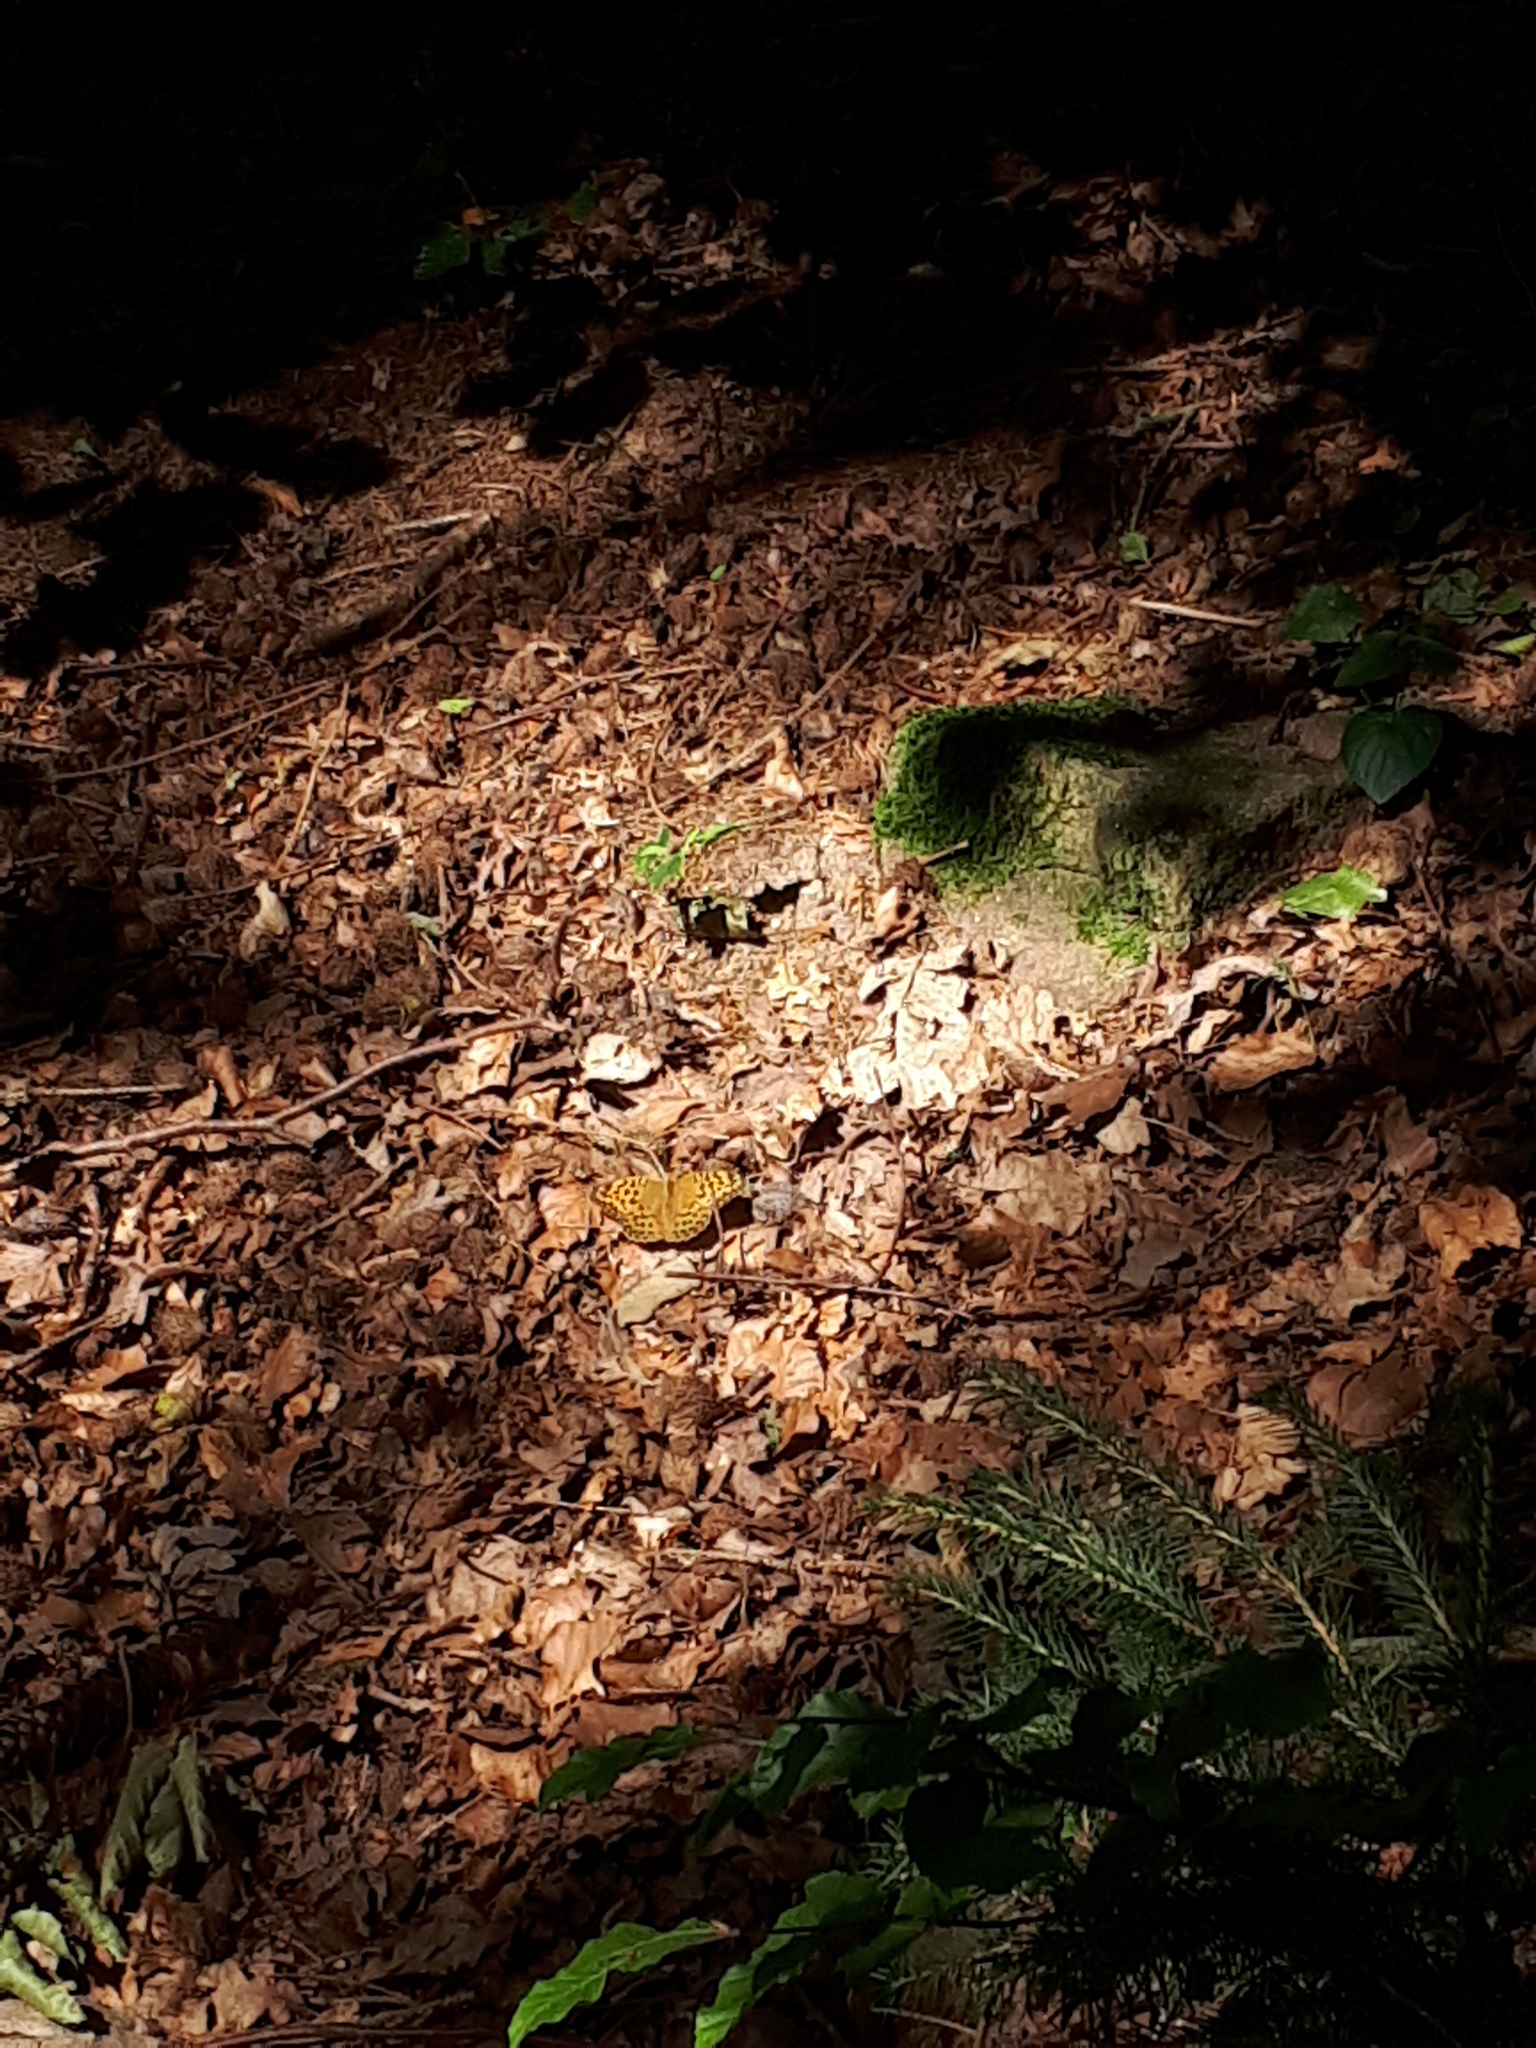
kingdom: Animalia
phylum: Arthropoda
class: Insecta
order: Lepidoptera
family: Nymphalidae
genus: Argynnis
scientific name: Argynnis paphia
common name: Silver-washed fritillary
